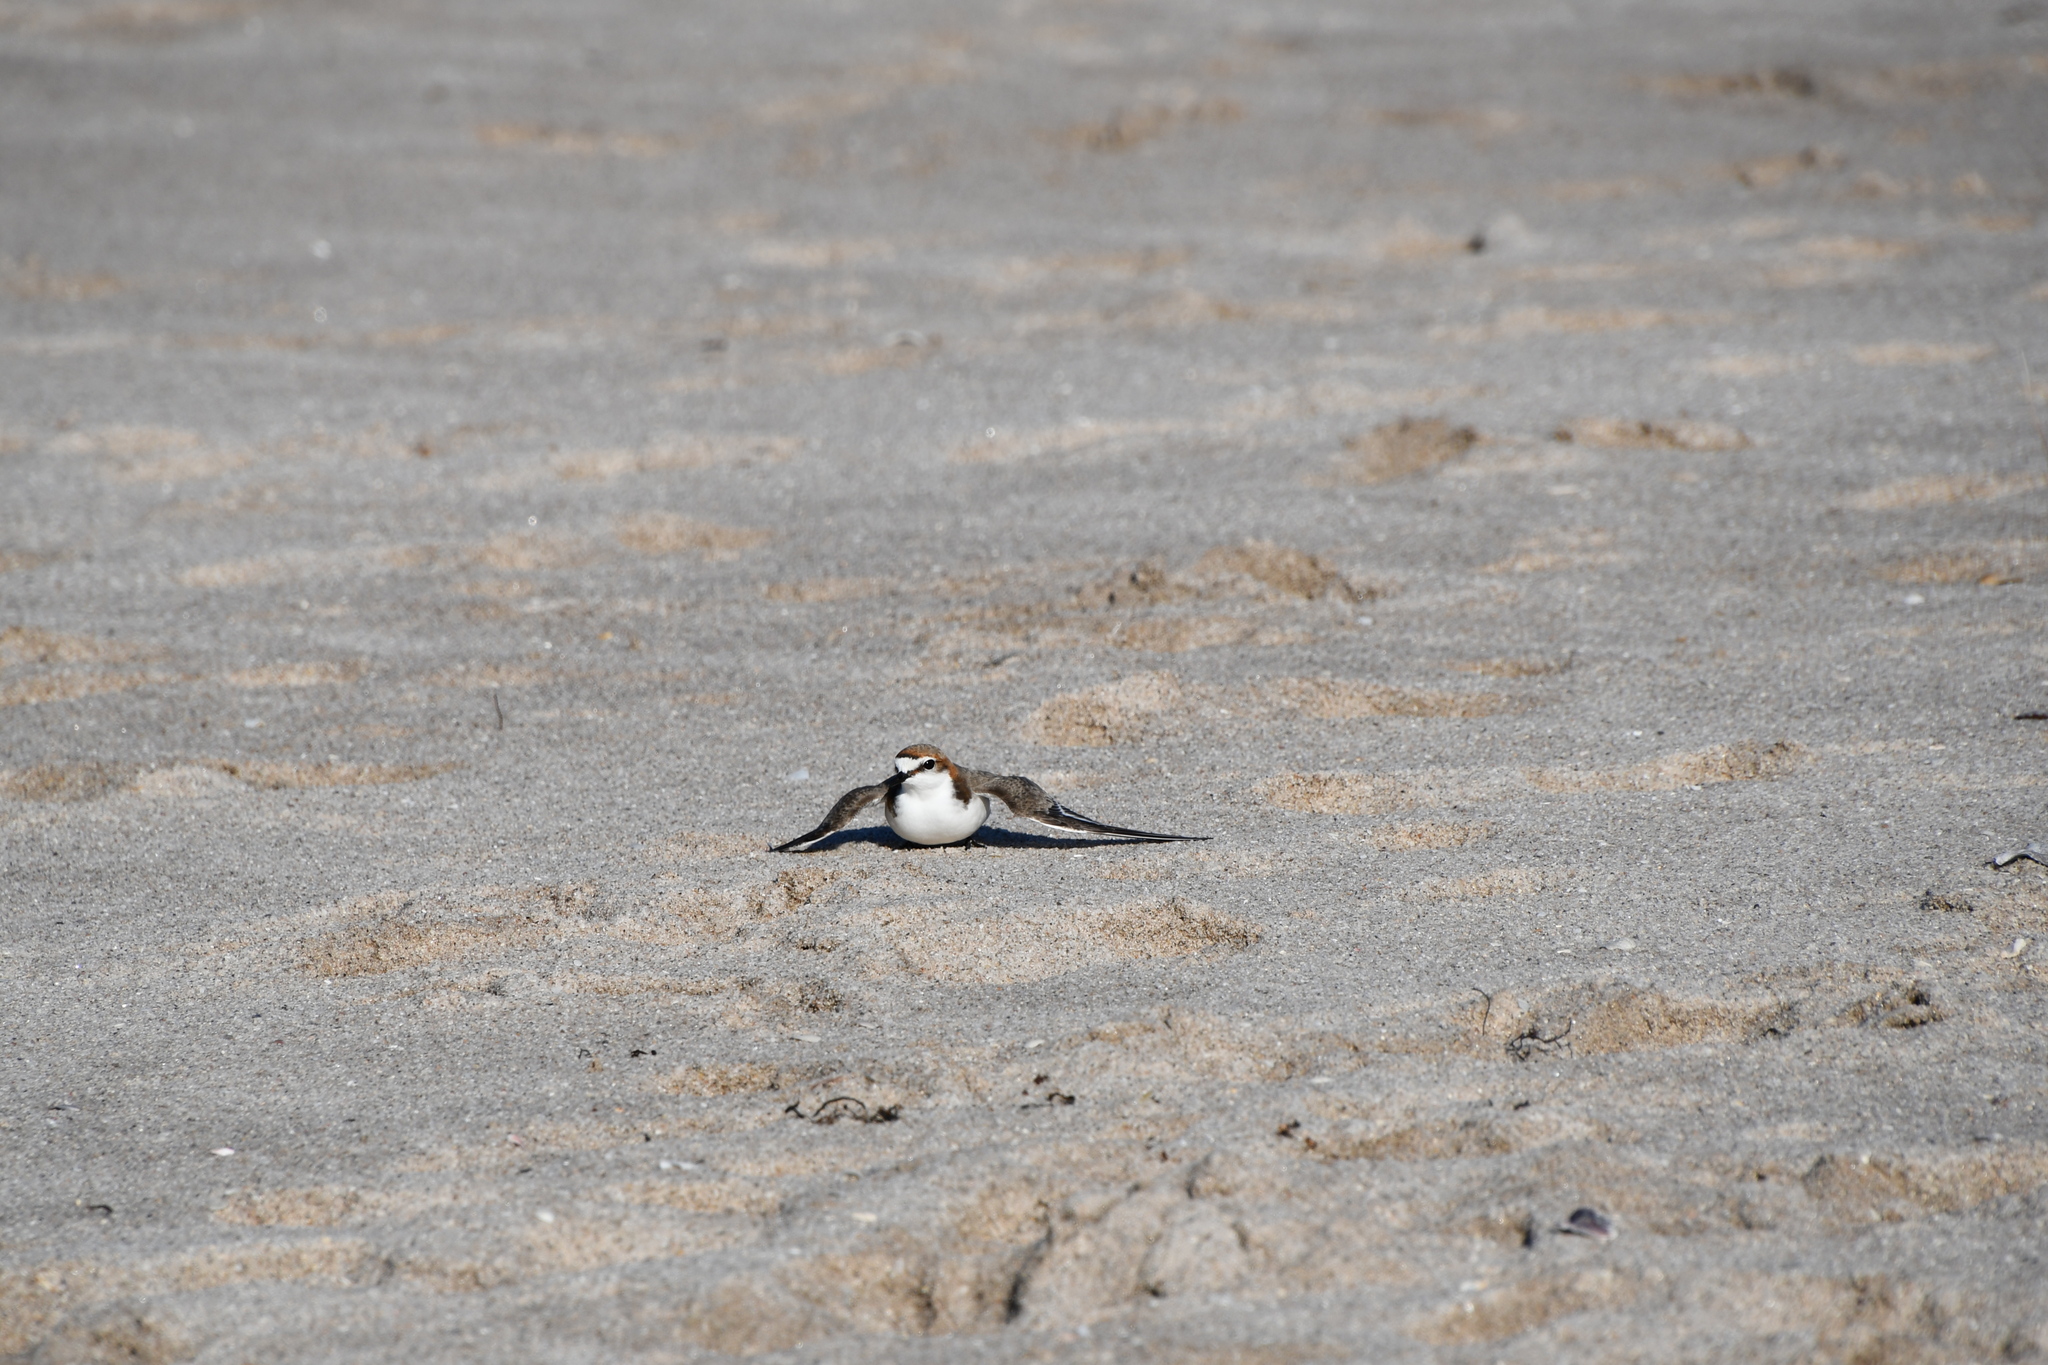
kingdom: Animalia
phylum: Chordata
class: Aves
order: Charadriiformes
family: Charadriidae
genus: Anarhynchus
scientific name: Anarhynchus
